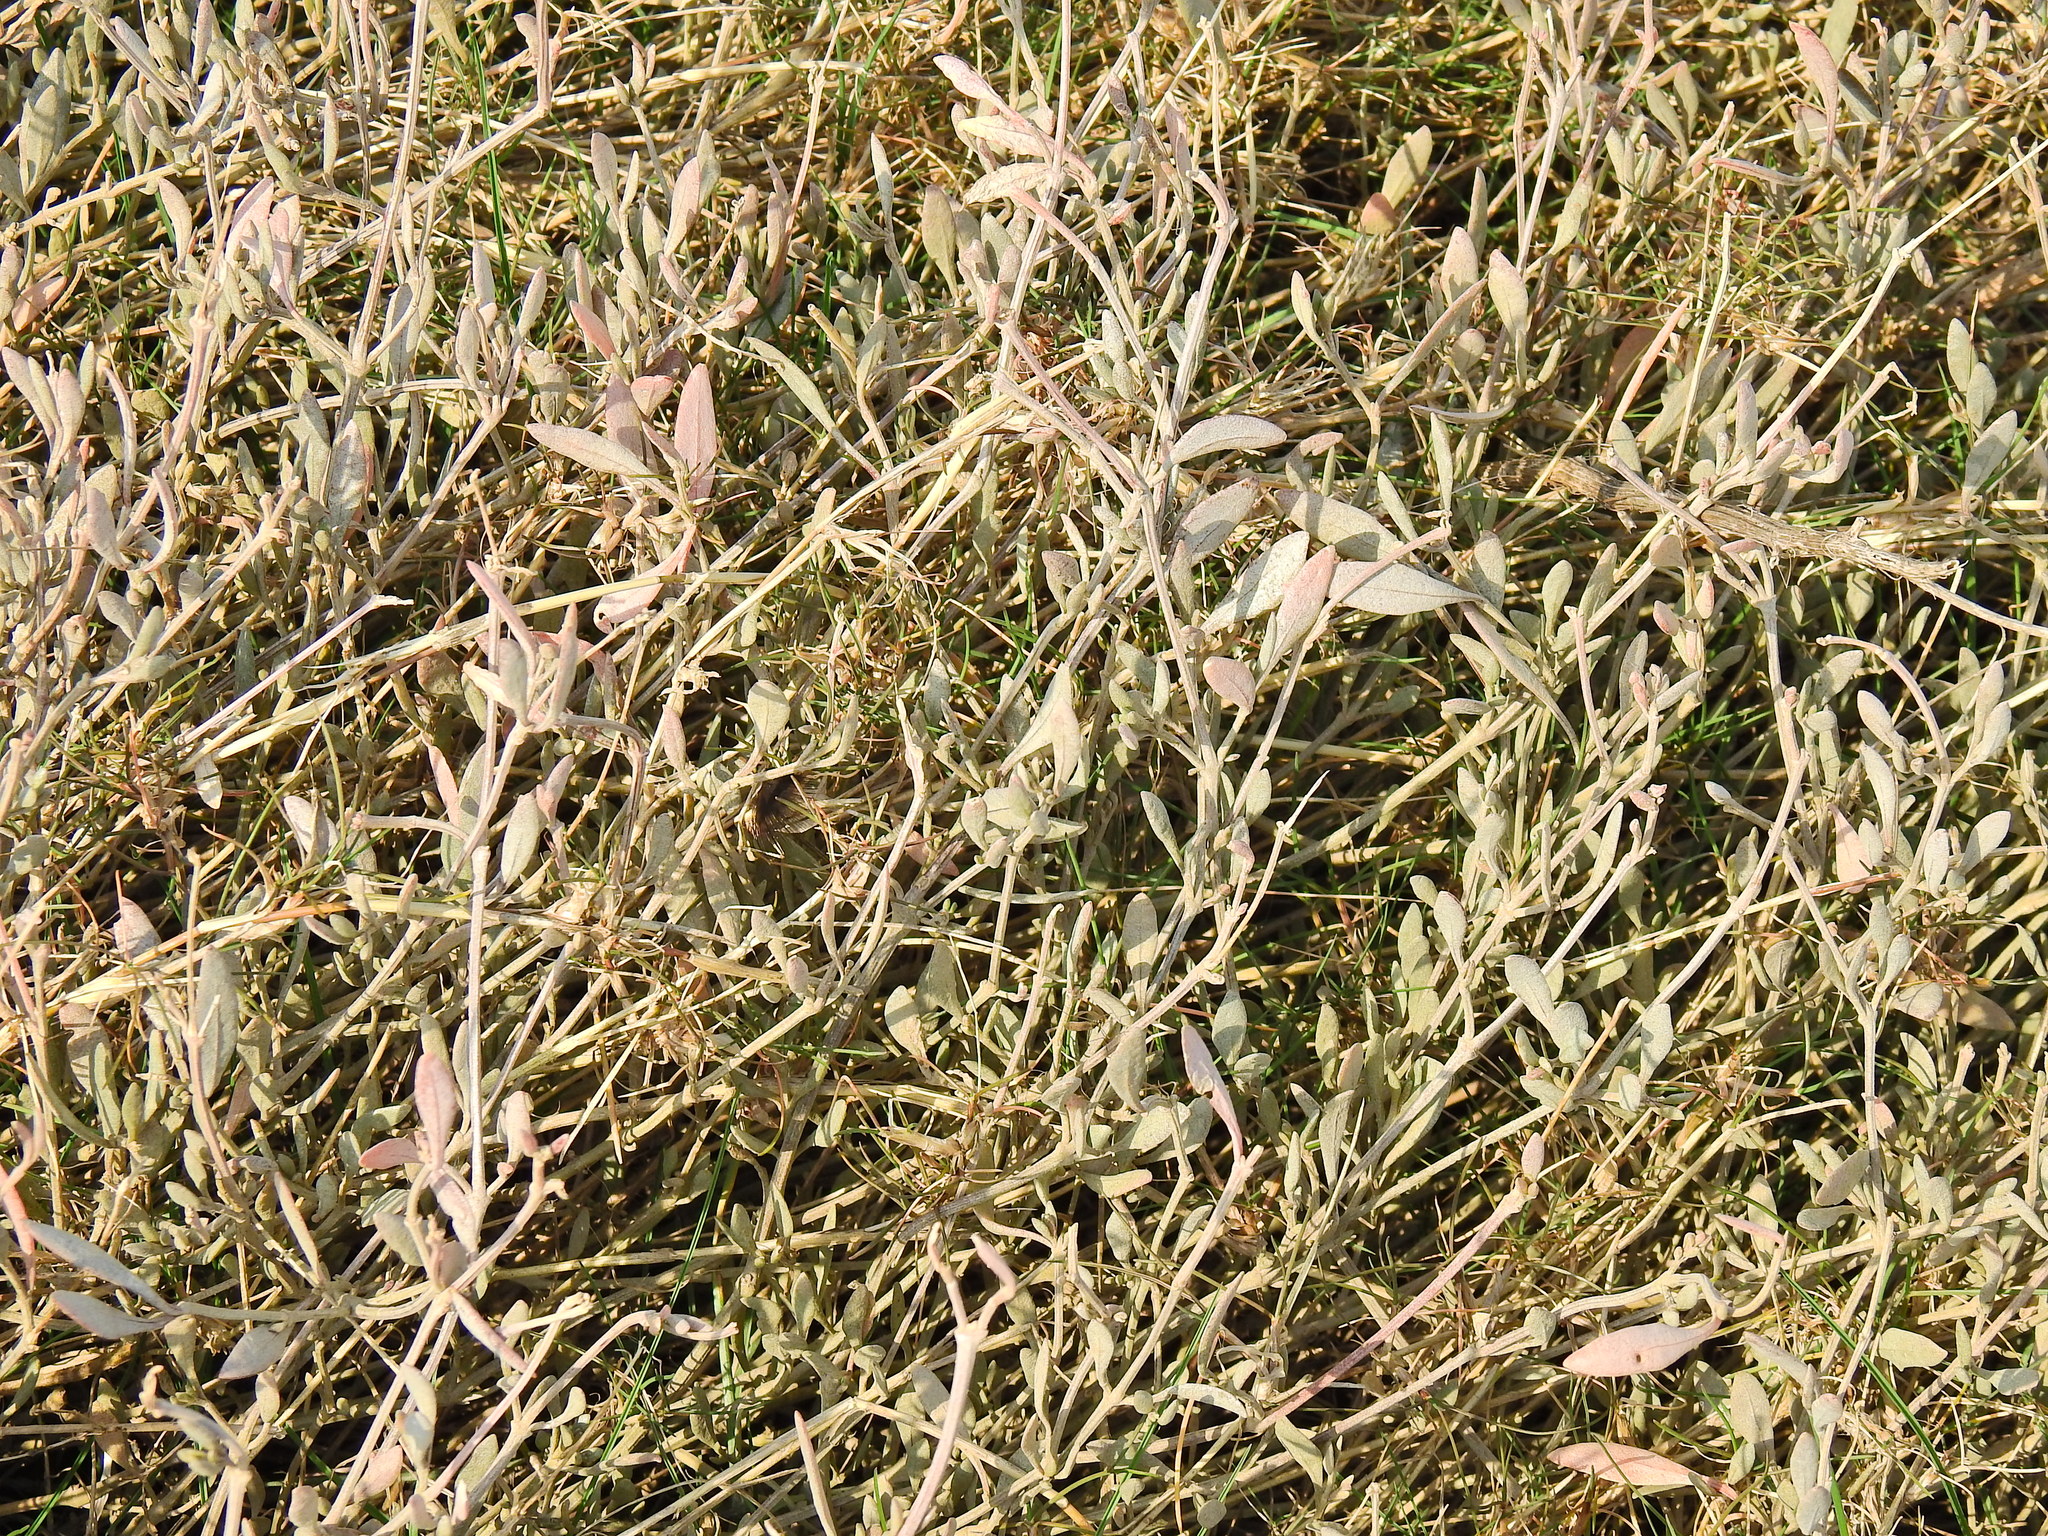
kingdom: Plantae
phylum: Tracheophyta
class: Magnoliopsida
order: Caryophyllales
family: Amaranthaceae
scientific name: Amaranthaceae
